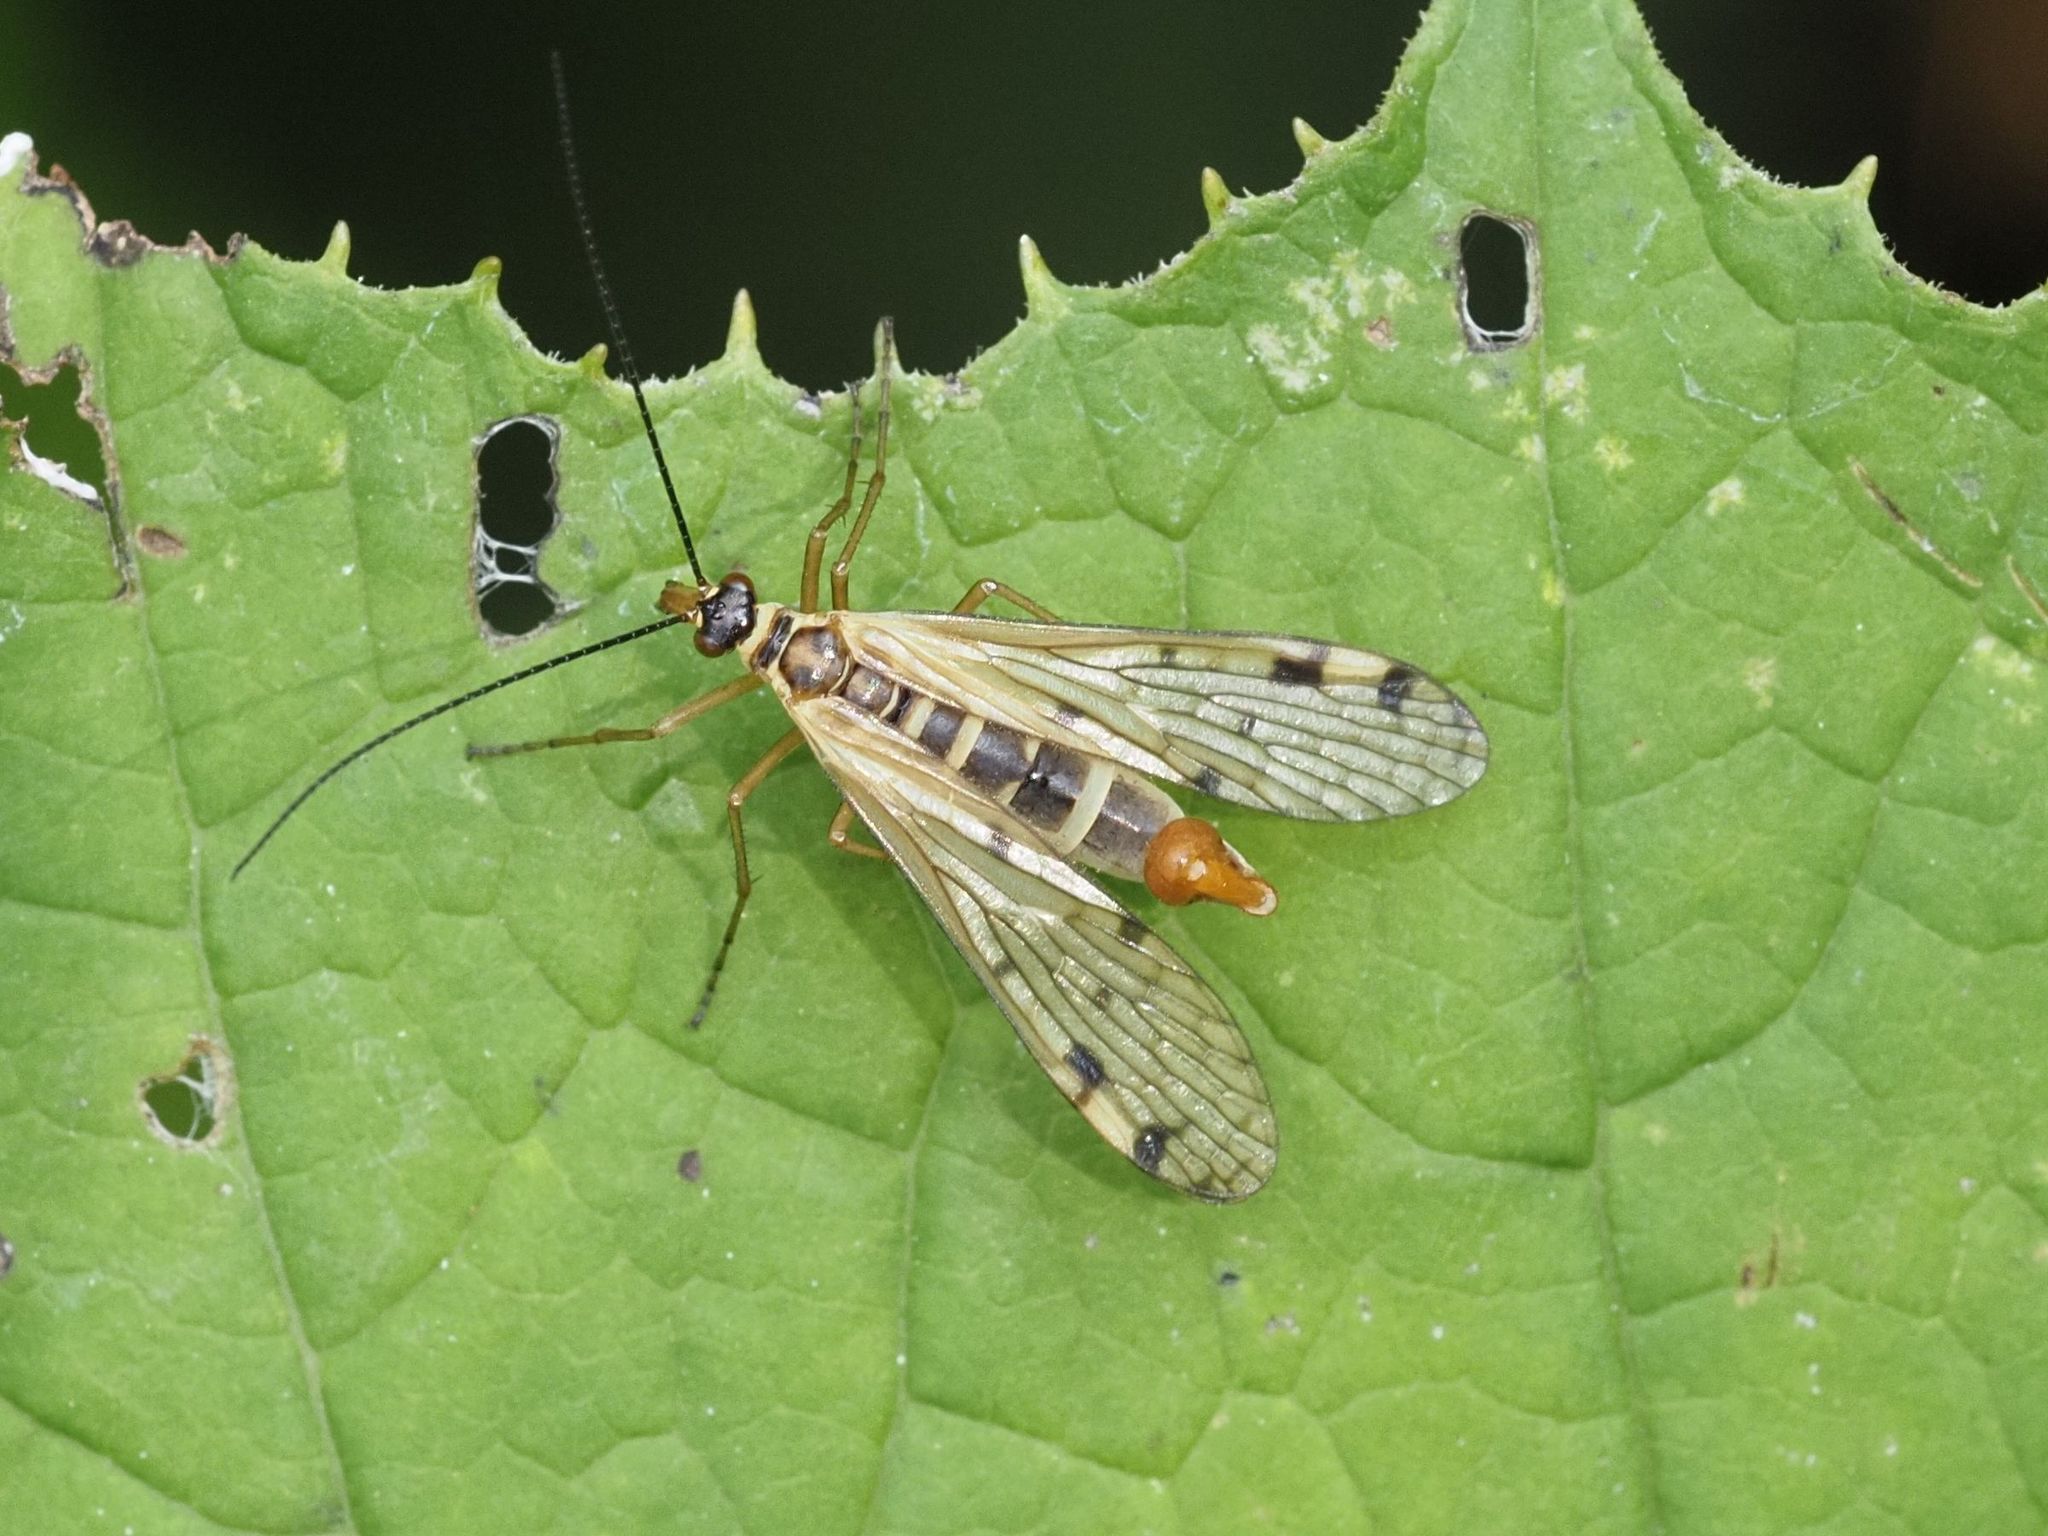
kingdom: Animalia
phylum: Arthropoda
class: Insecta
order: Mecoptera
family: Panorpidae
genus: Panorpa
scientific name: Panorpa alpina
